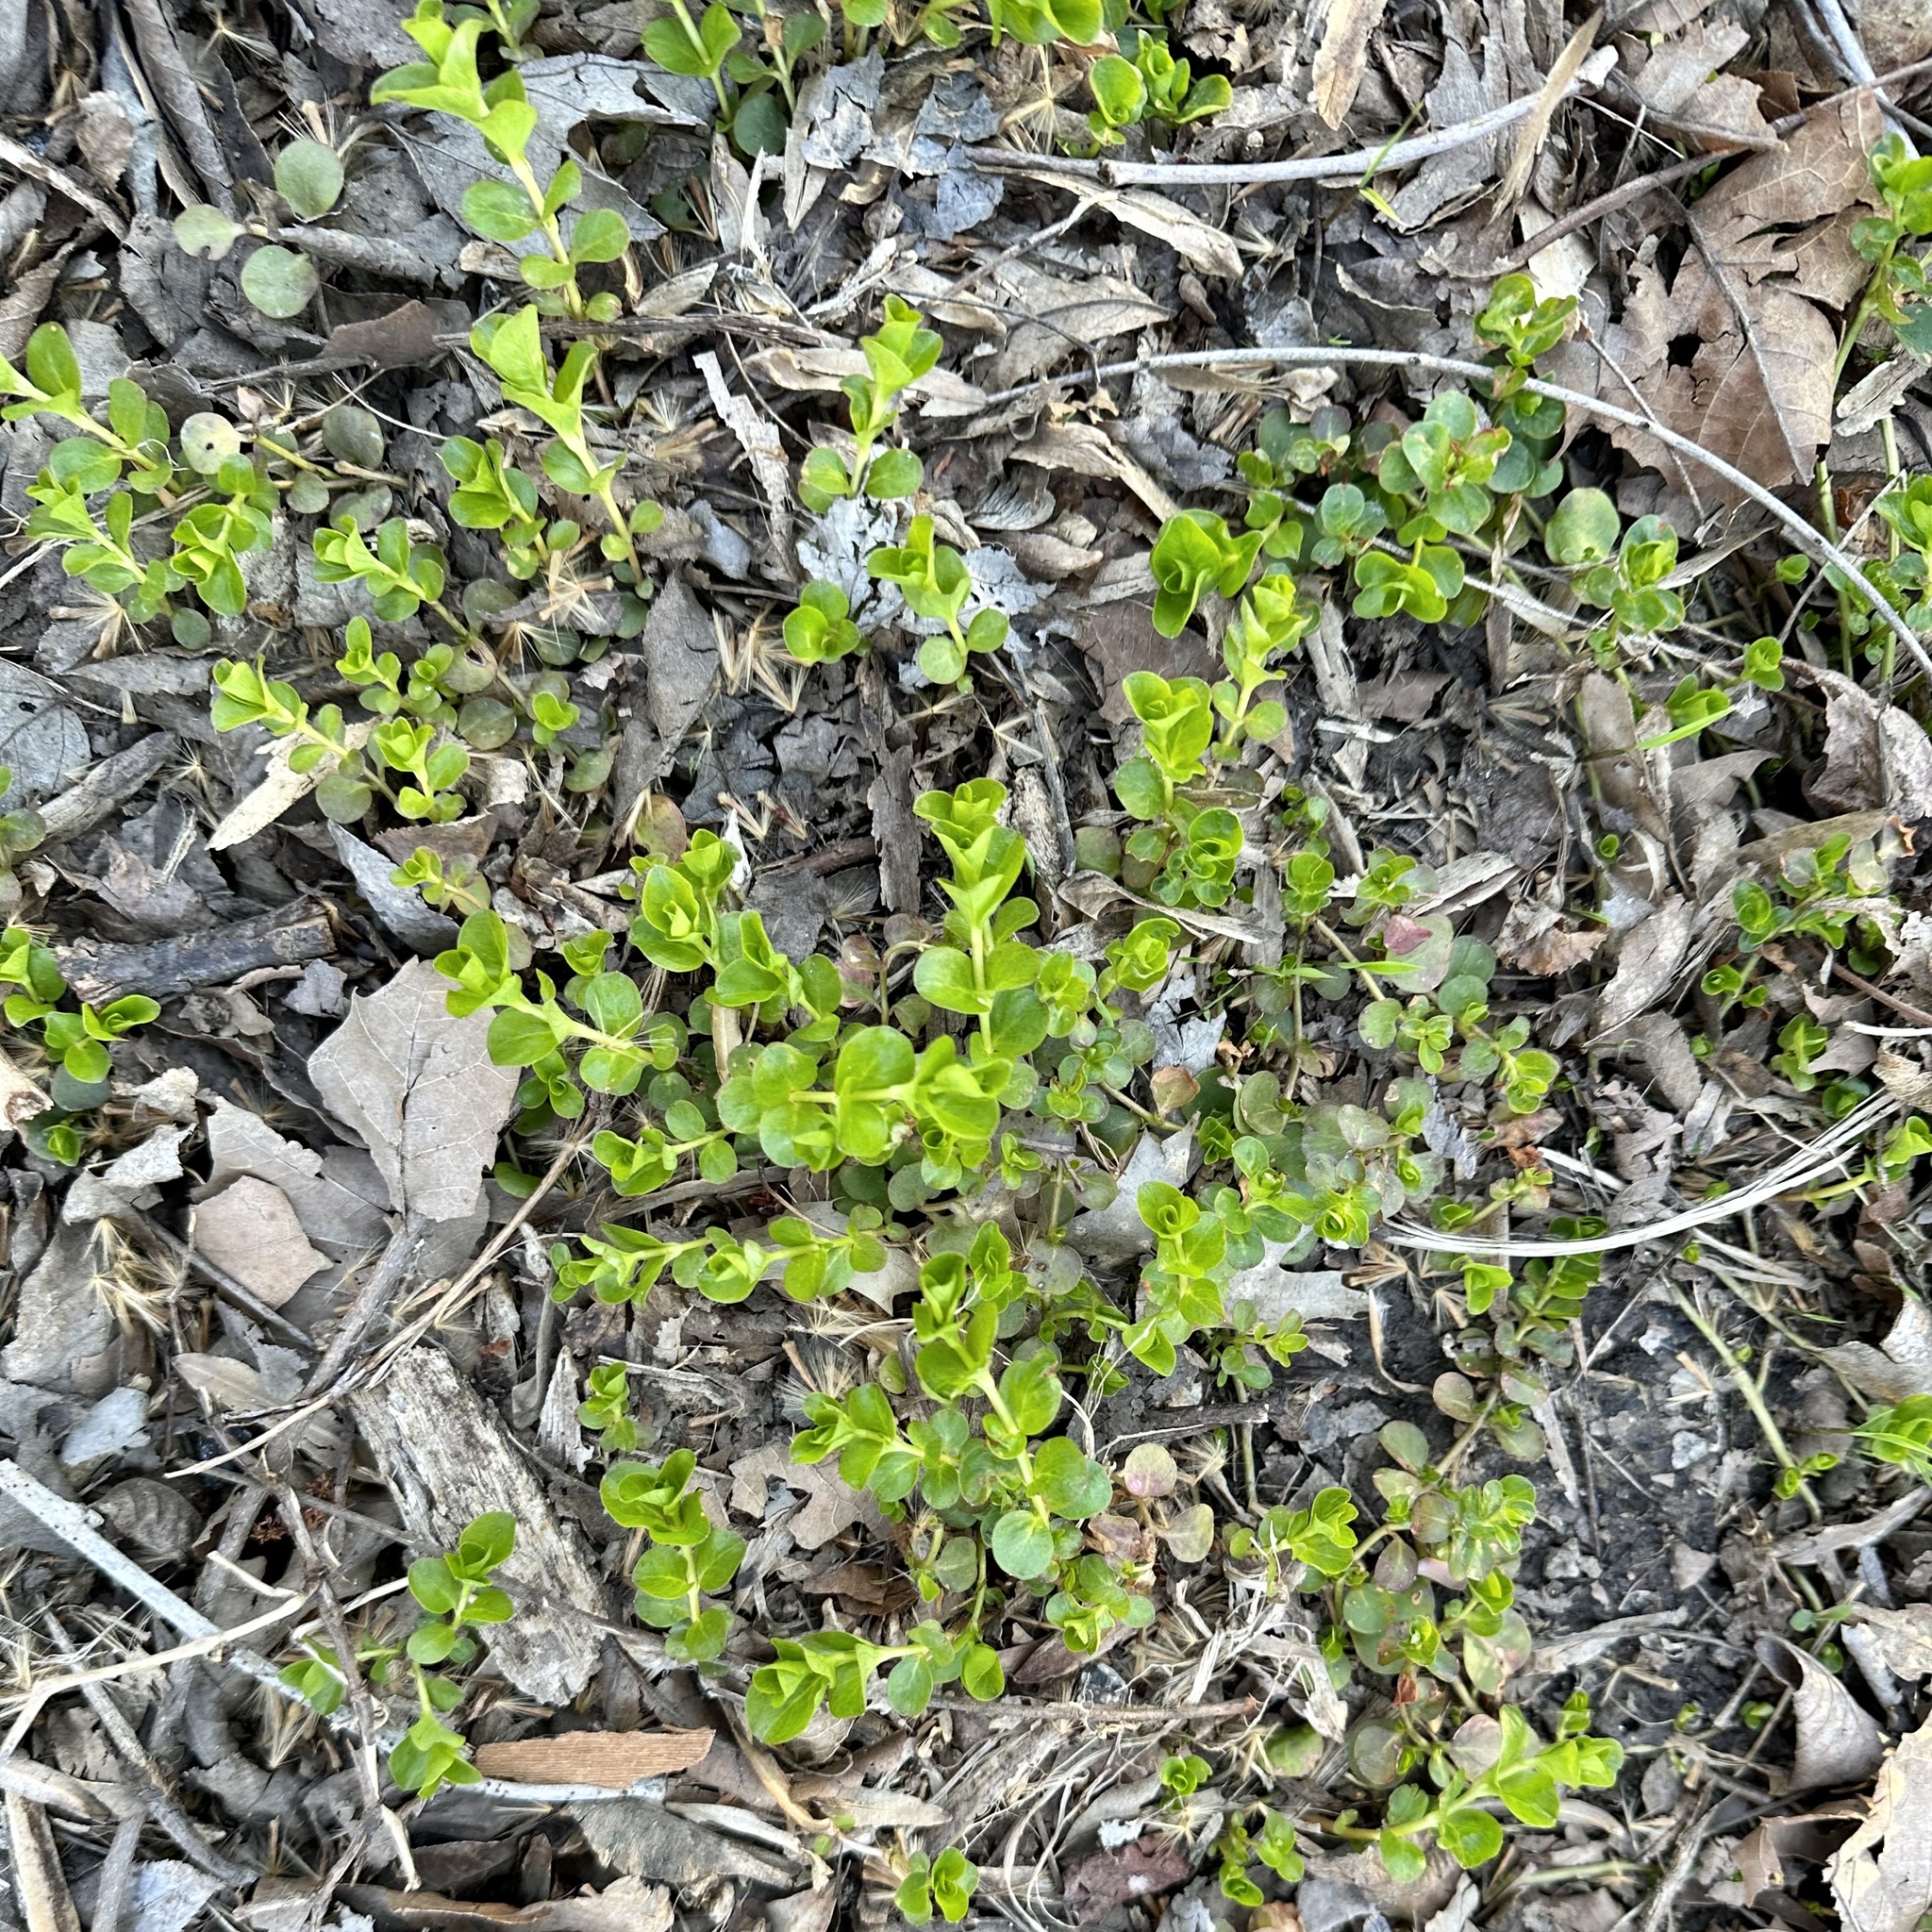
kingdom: Plantae
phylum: Tracheophyta
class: Magnoliopsida
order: Ericales
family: Primulaceae
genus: Lysimachia
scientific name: Lysimachia nummularia
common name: Moneywort
